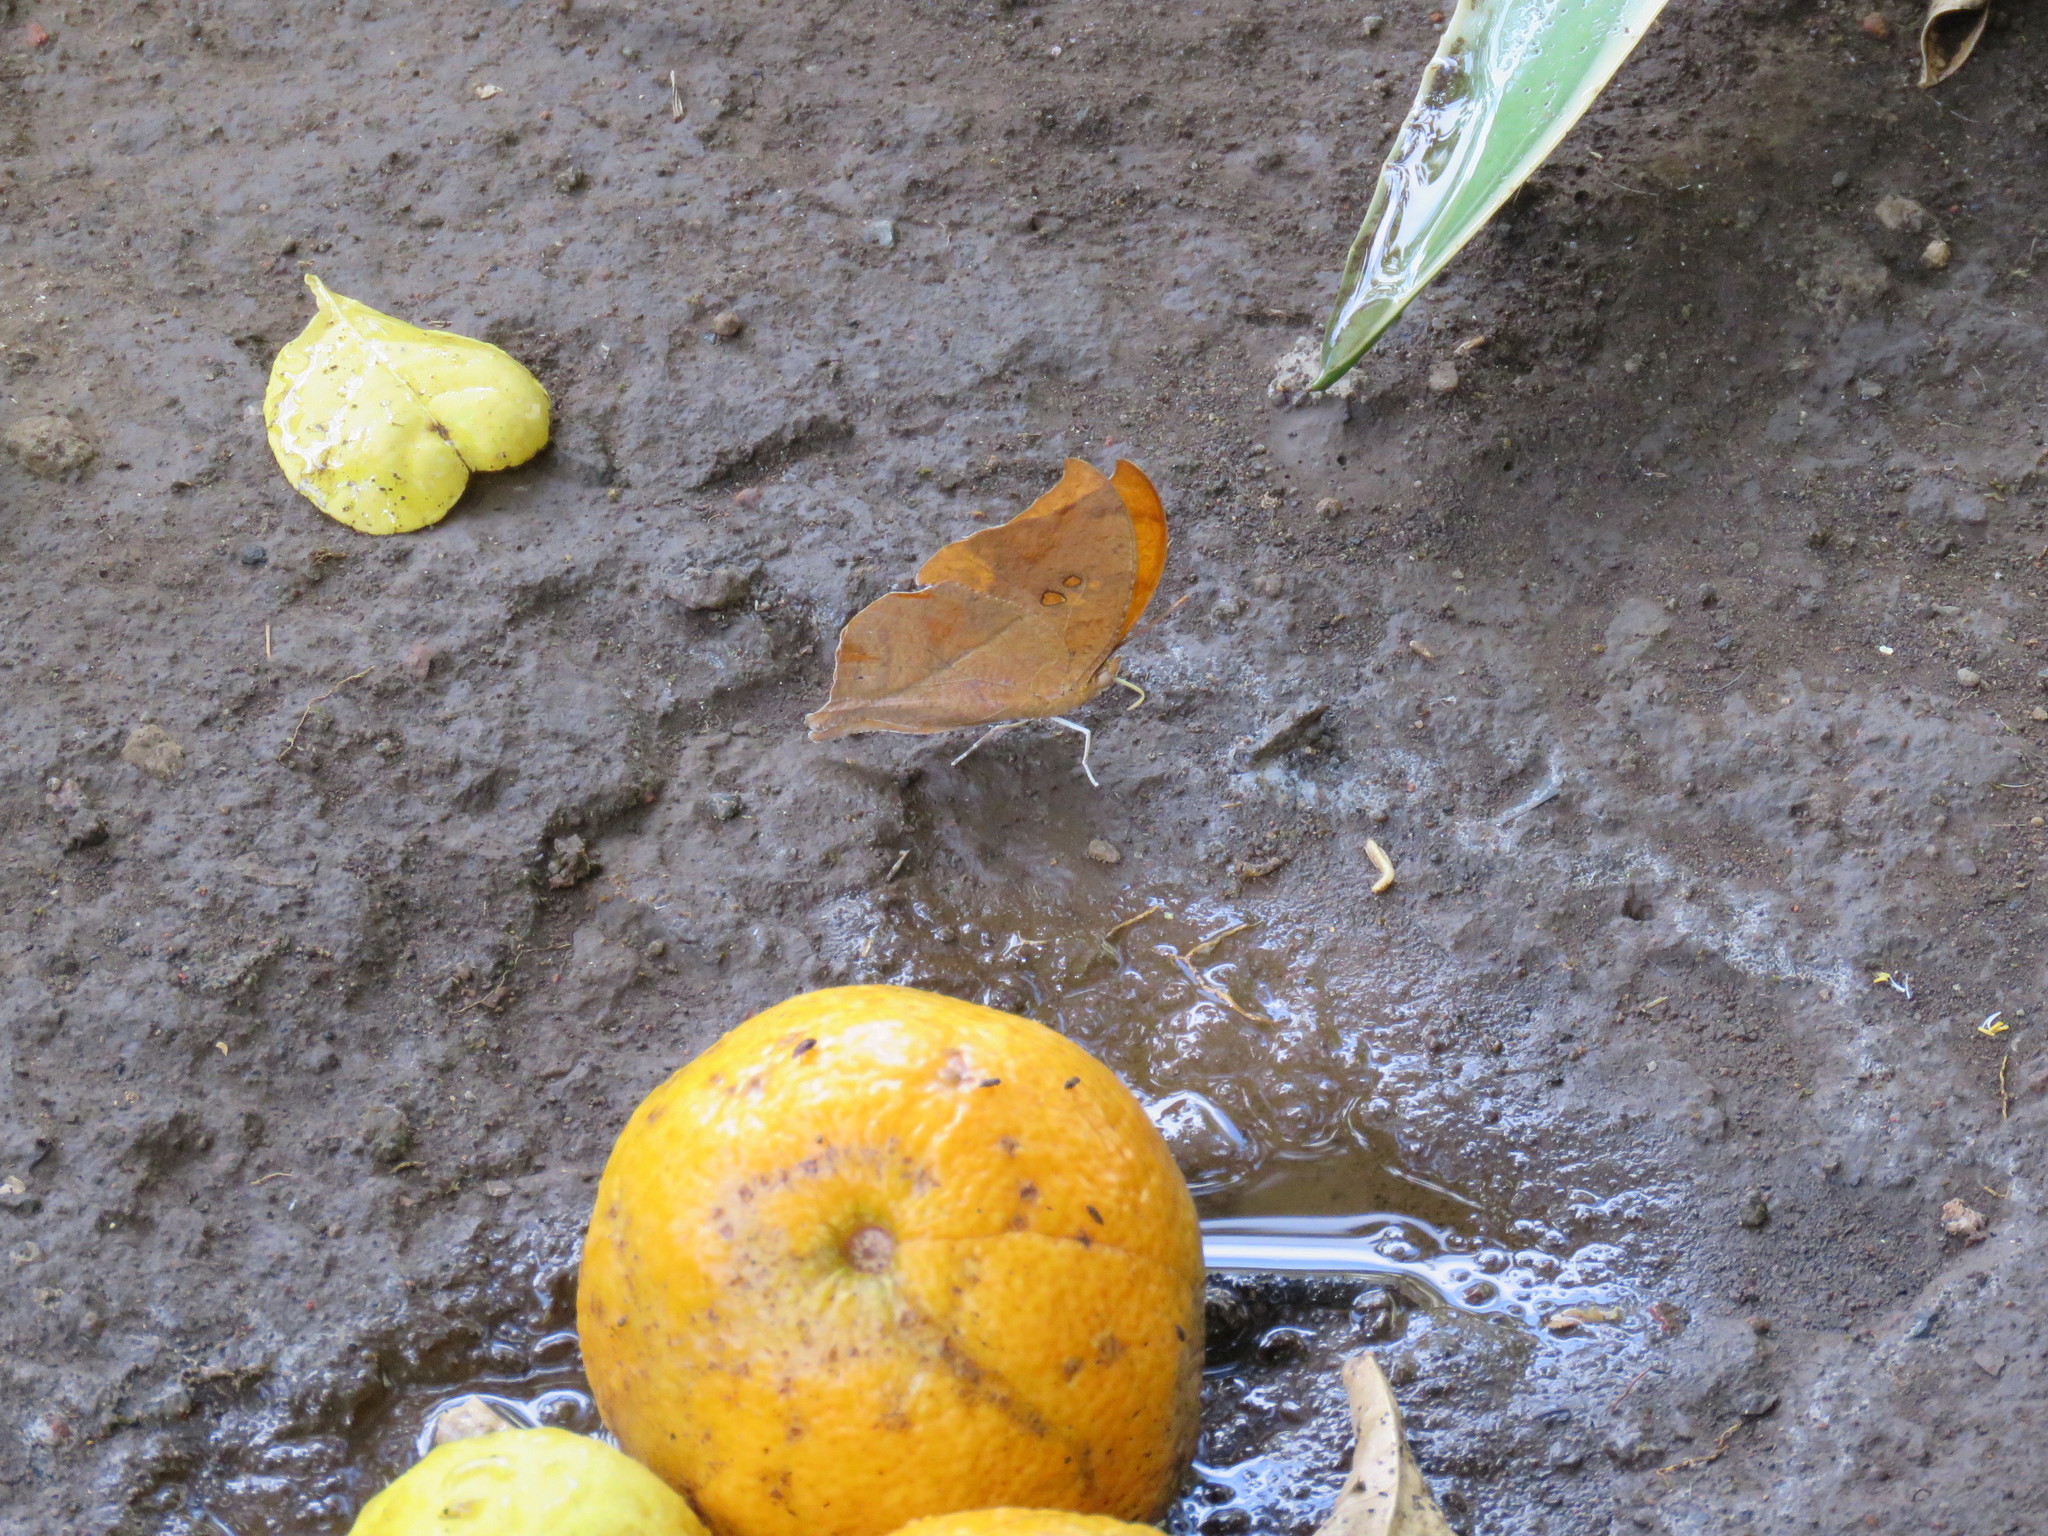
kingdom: Animalia
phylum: Arthropoda
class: Insecta
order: Lepidoptera
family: Nymphalidae
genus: Zaretis
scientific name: Zaretis itys
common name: Skeletonized leafwing
